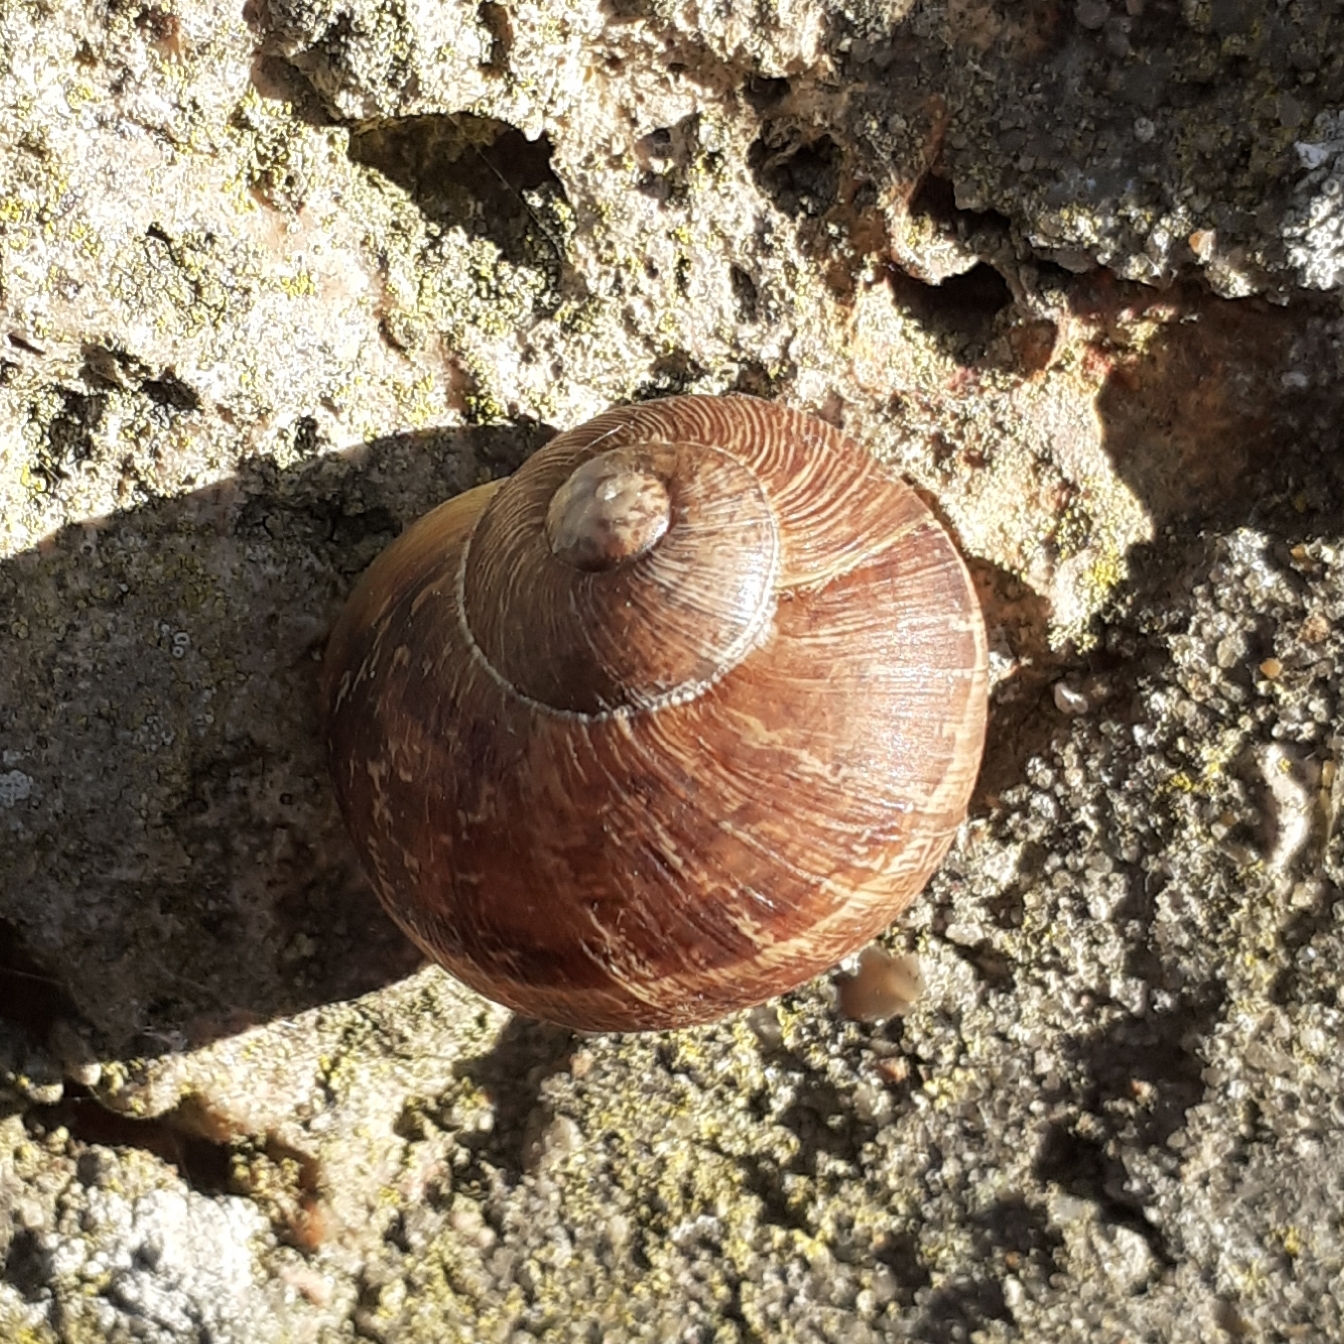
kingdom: Animalia
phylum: Mollusca
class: Gastropoda
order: Stylommatophora
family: Helicidae
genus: Cornu
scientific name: Cornu aspersum
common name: Brown garden snail
